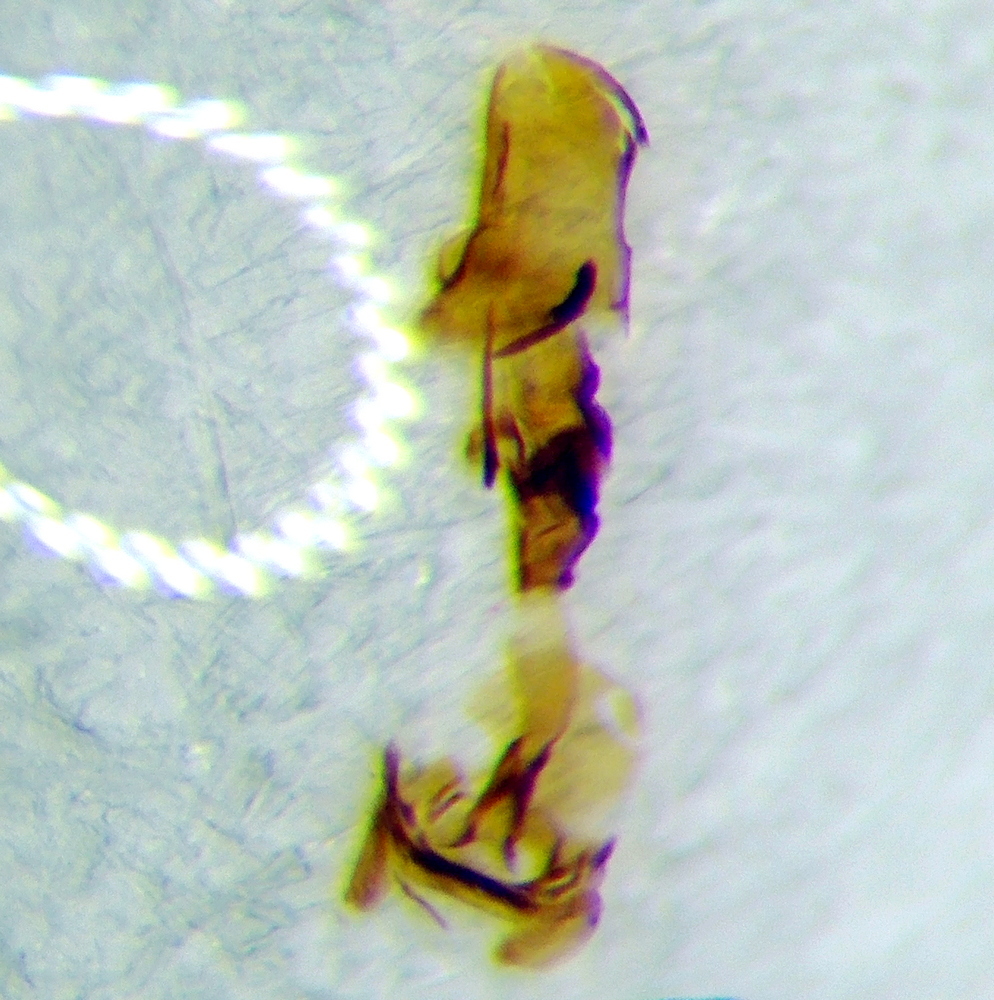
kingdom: Animalia
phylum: Arthropoda
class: Insecta
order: Hemiptera
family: Miridae
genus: Orthocephalus
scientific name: Orthocephalus bivittatus
